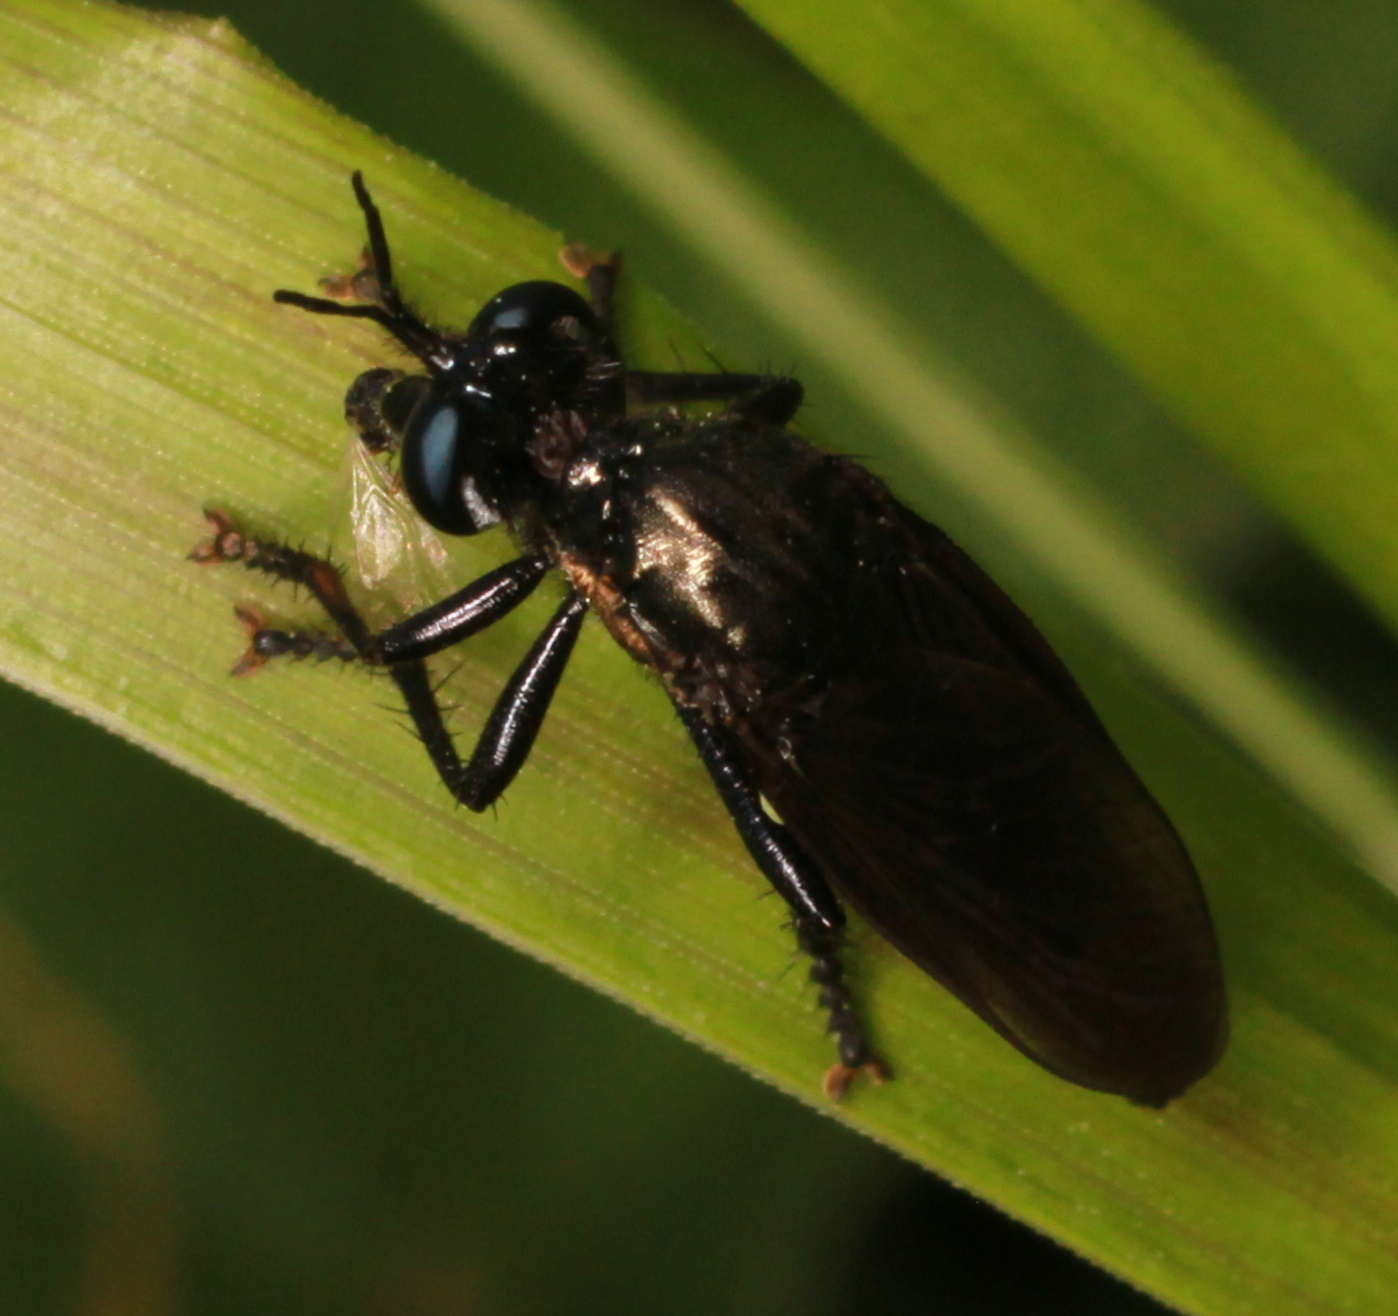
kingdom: Animalia
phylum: Arthropoda
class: Insecta
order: Diptera
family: Asilidae
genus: Dioctria
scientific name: Dioctria atricapilla
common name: Violet black-legged
